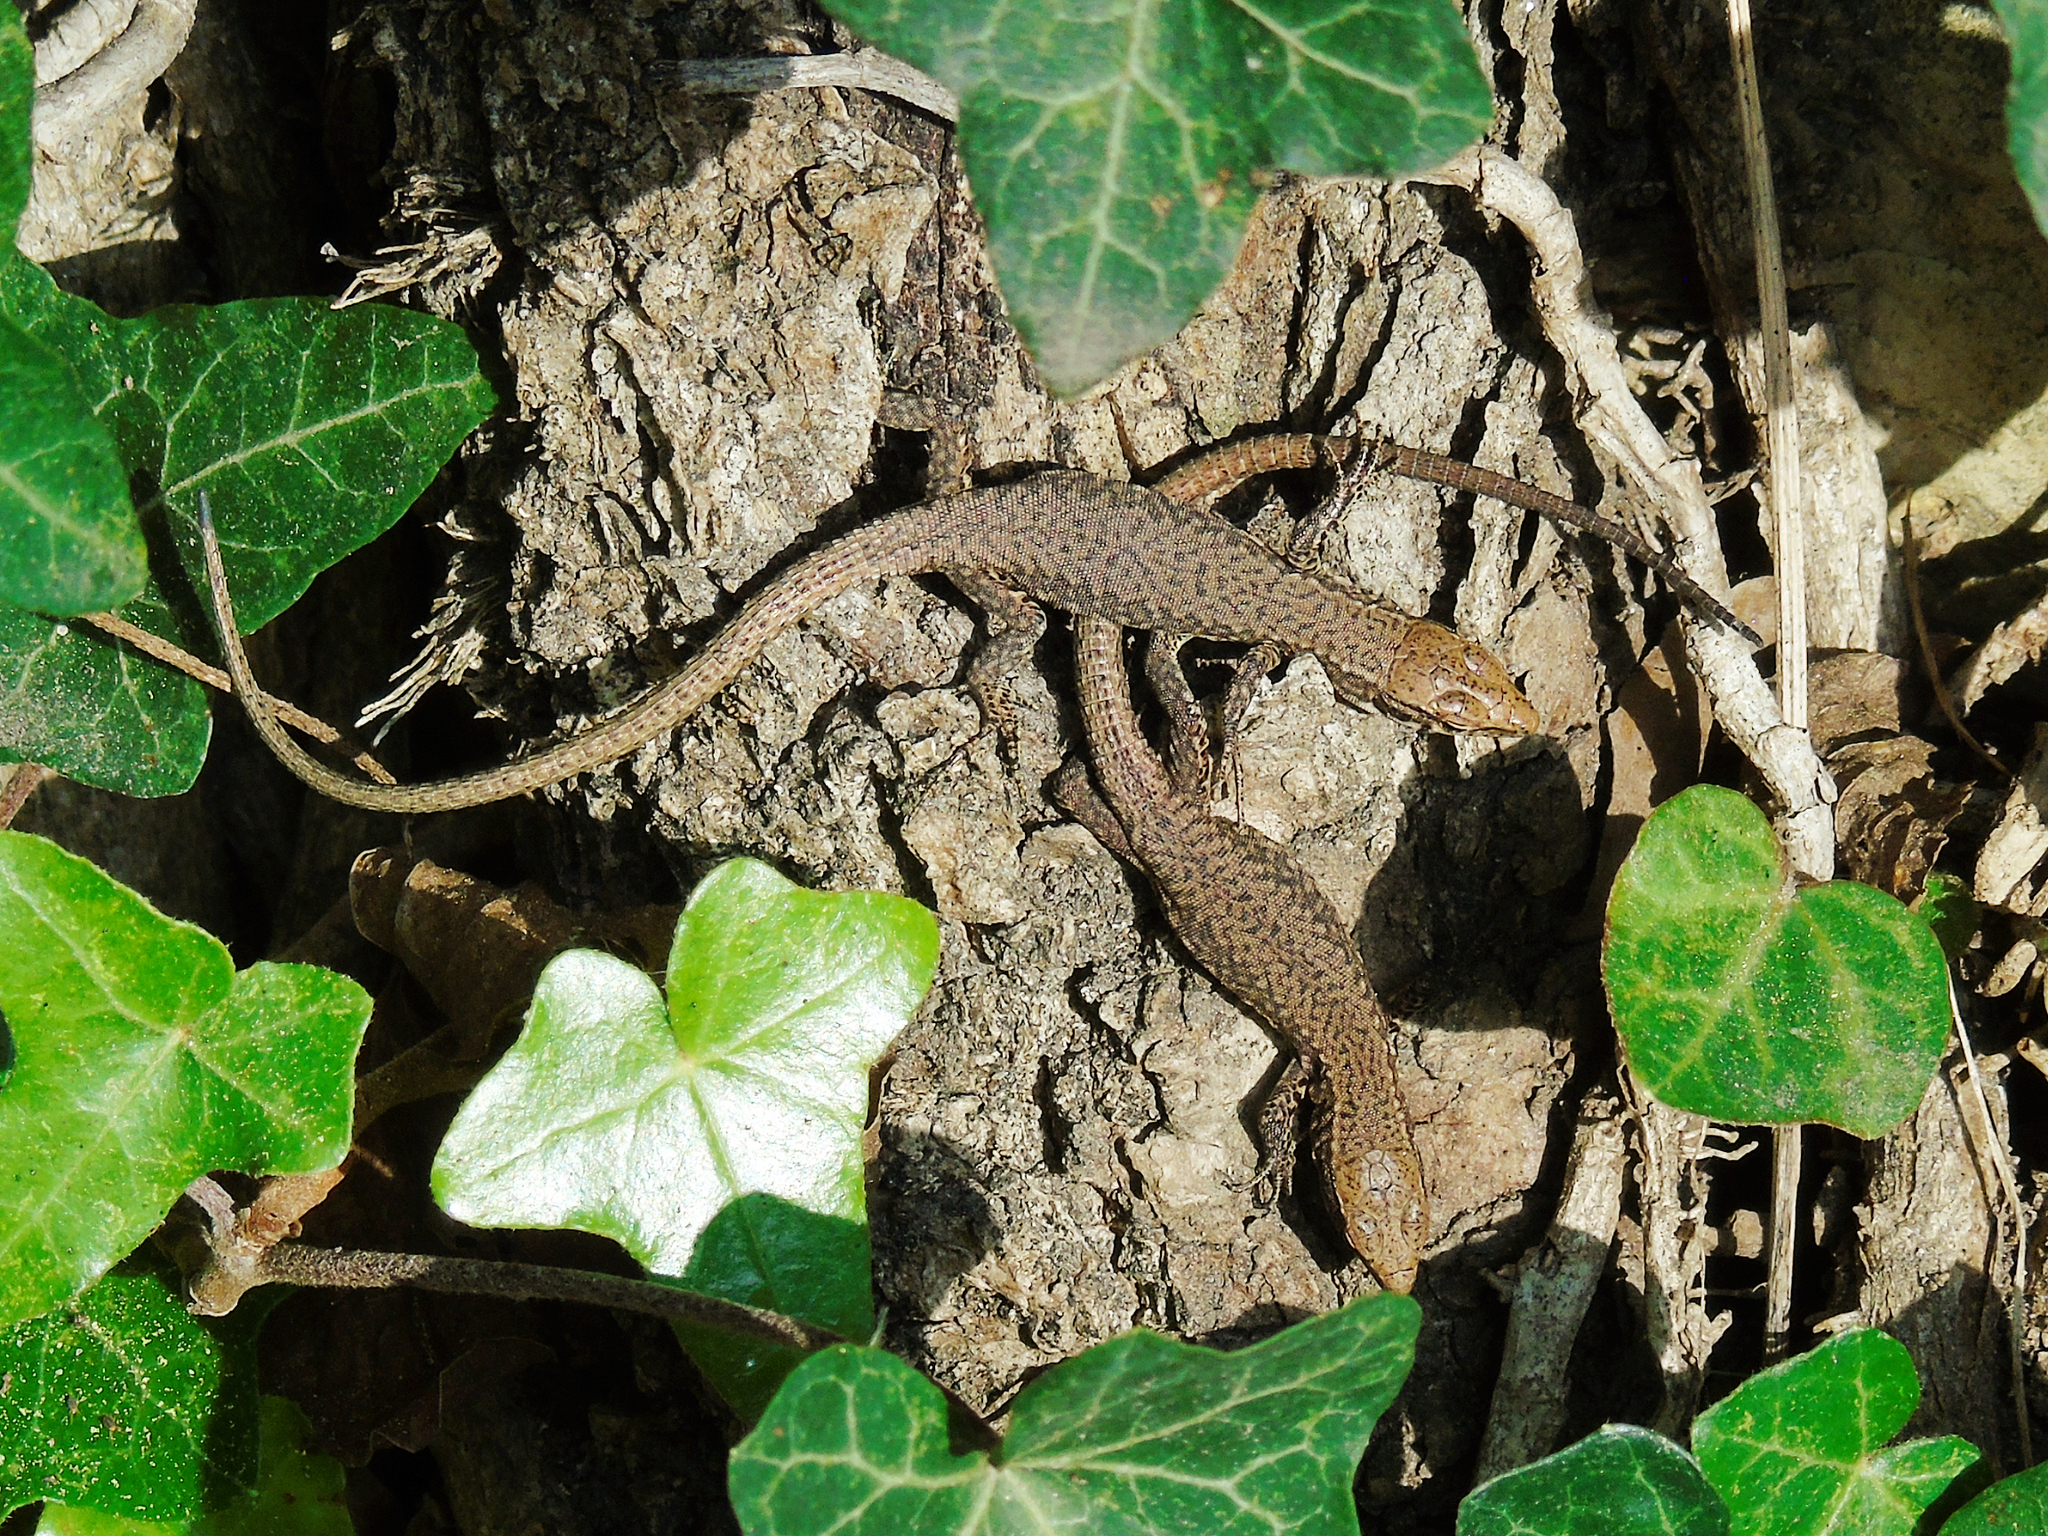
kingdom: Animalia
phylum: Chordata
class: Squamata
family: Lacertidae
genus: Darevskia
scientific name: Darevskia rudis
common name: Spiny-tailed lizard
